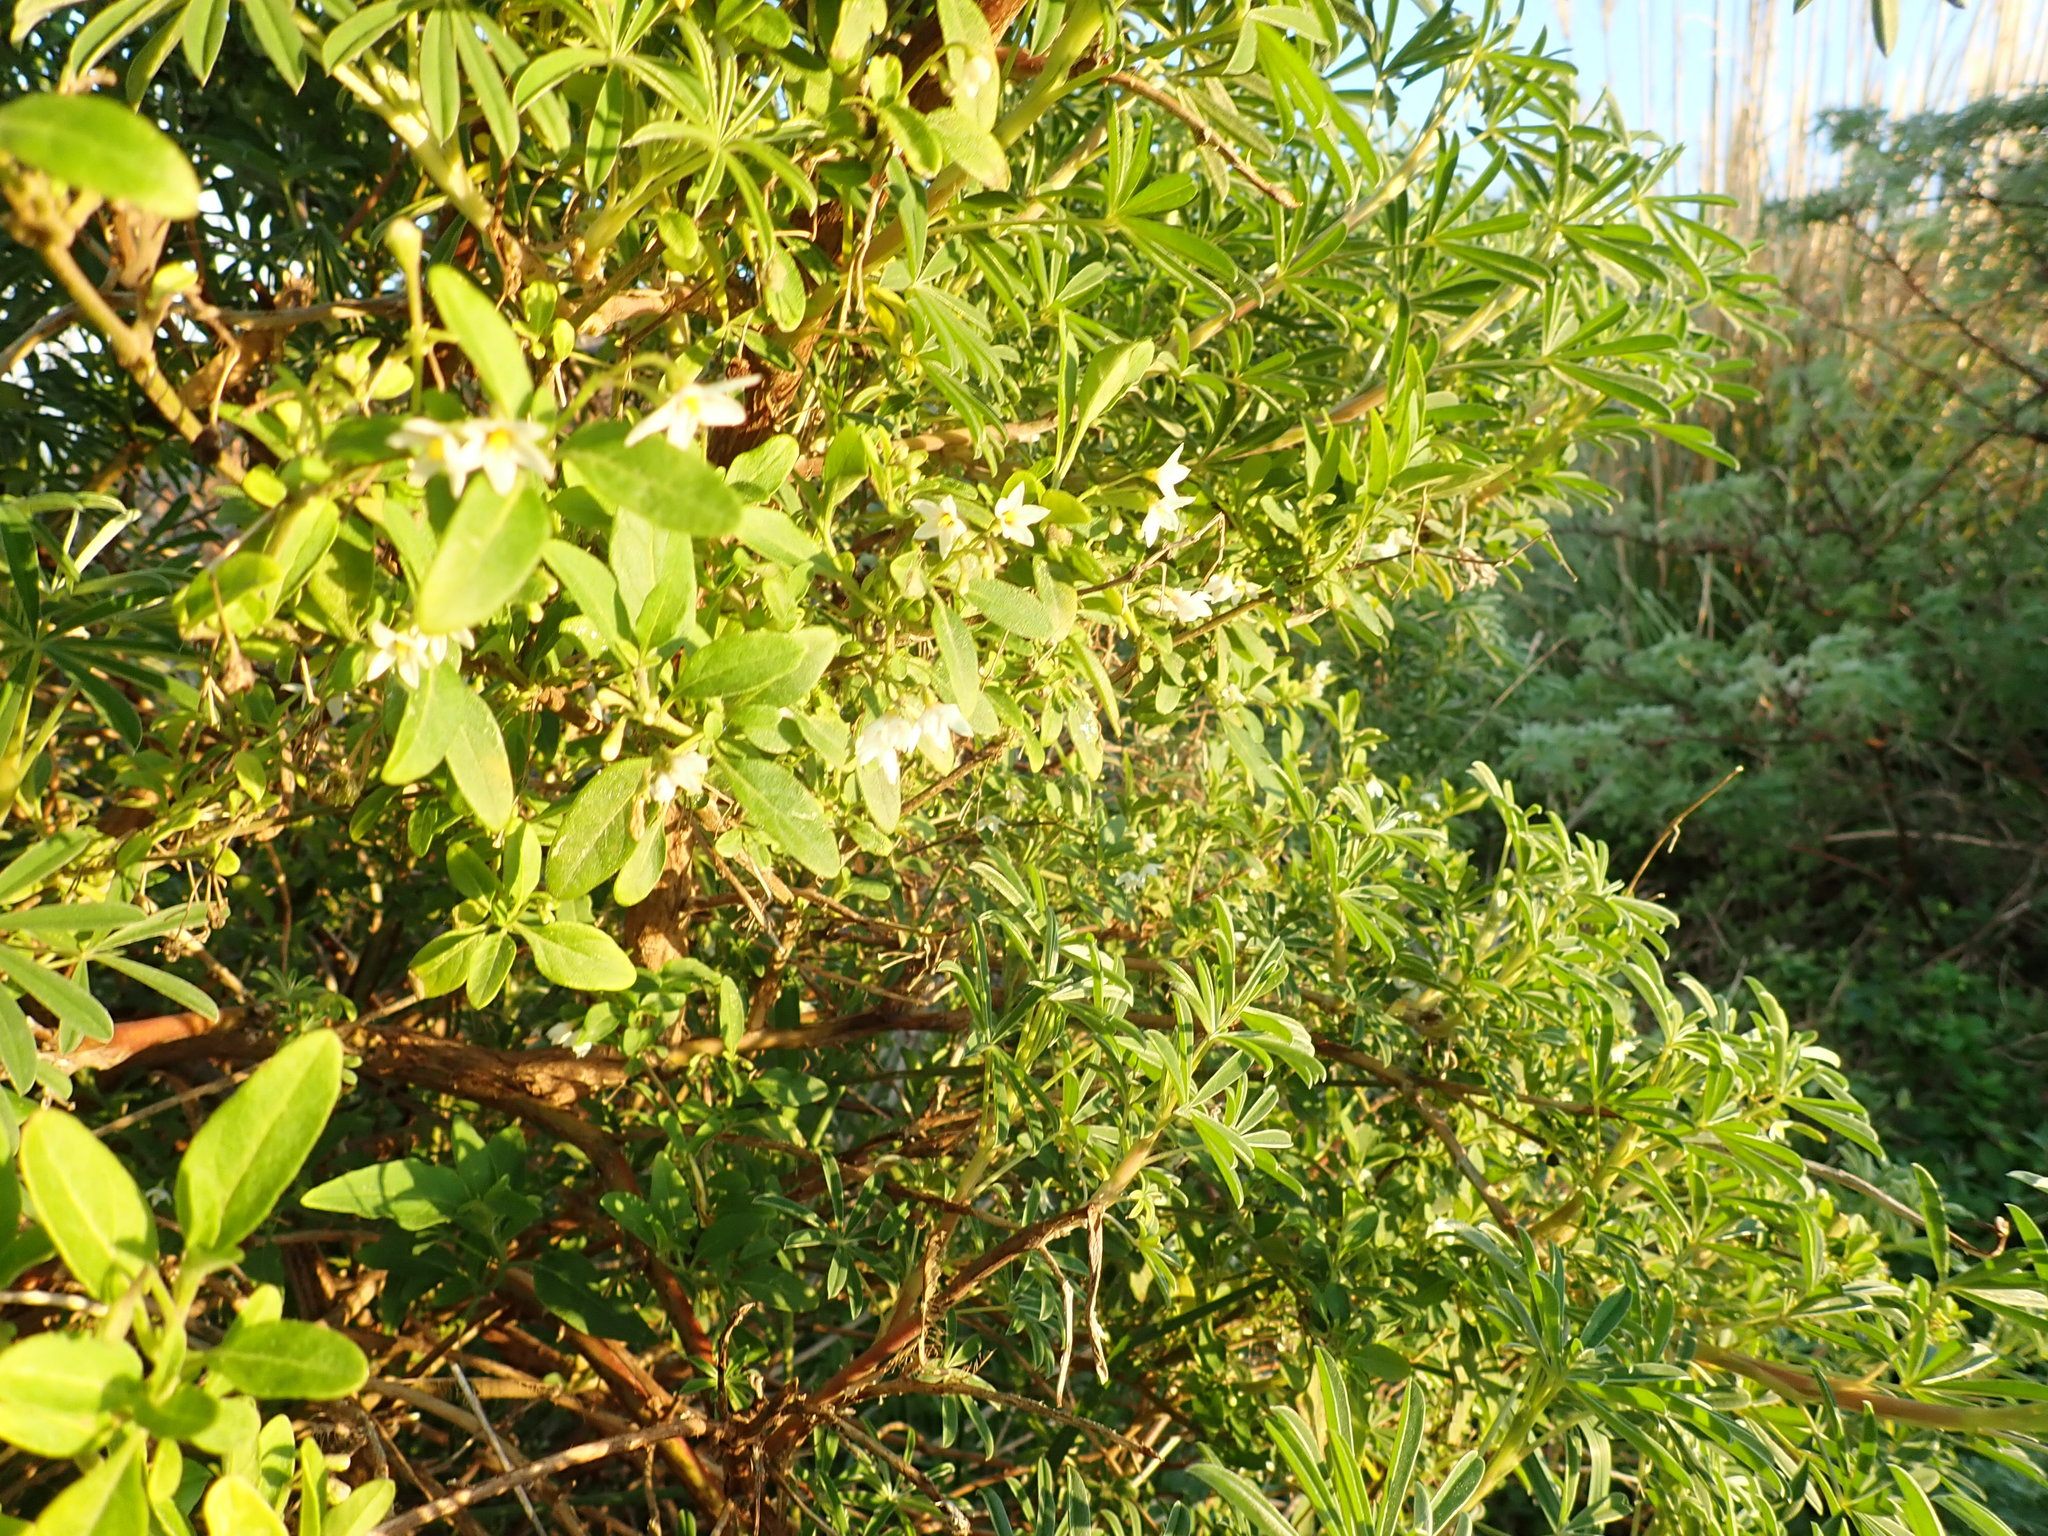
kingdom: Plantae
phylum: Tracheophyta
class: Magnoliopsida
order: Solanales
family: Solanaceae
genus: Solanum
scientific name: Solanum chenopodioides
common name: Tall nightshade
